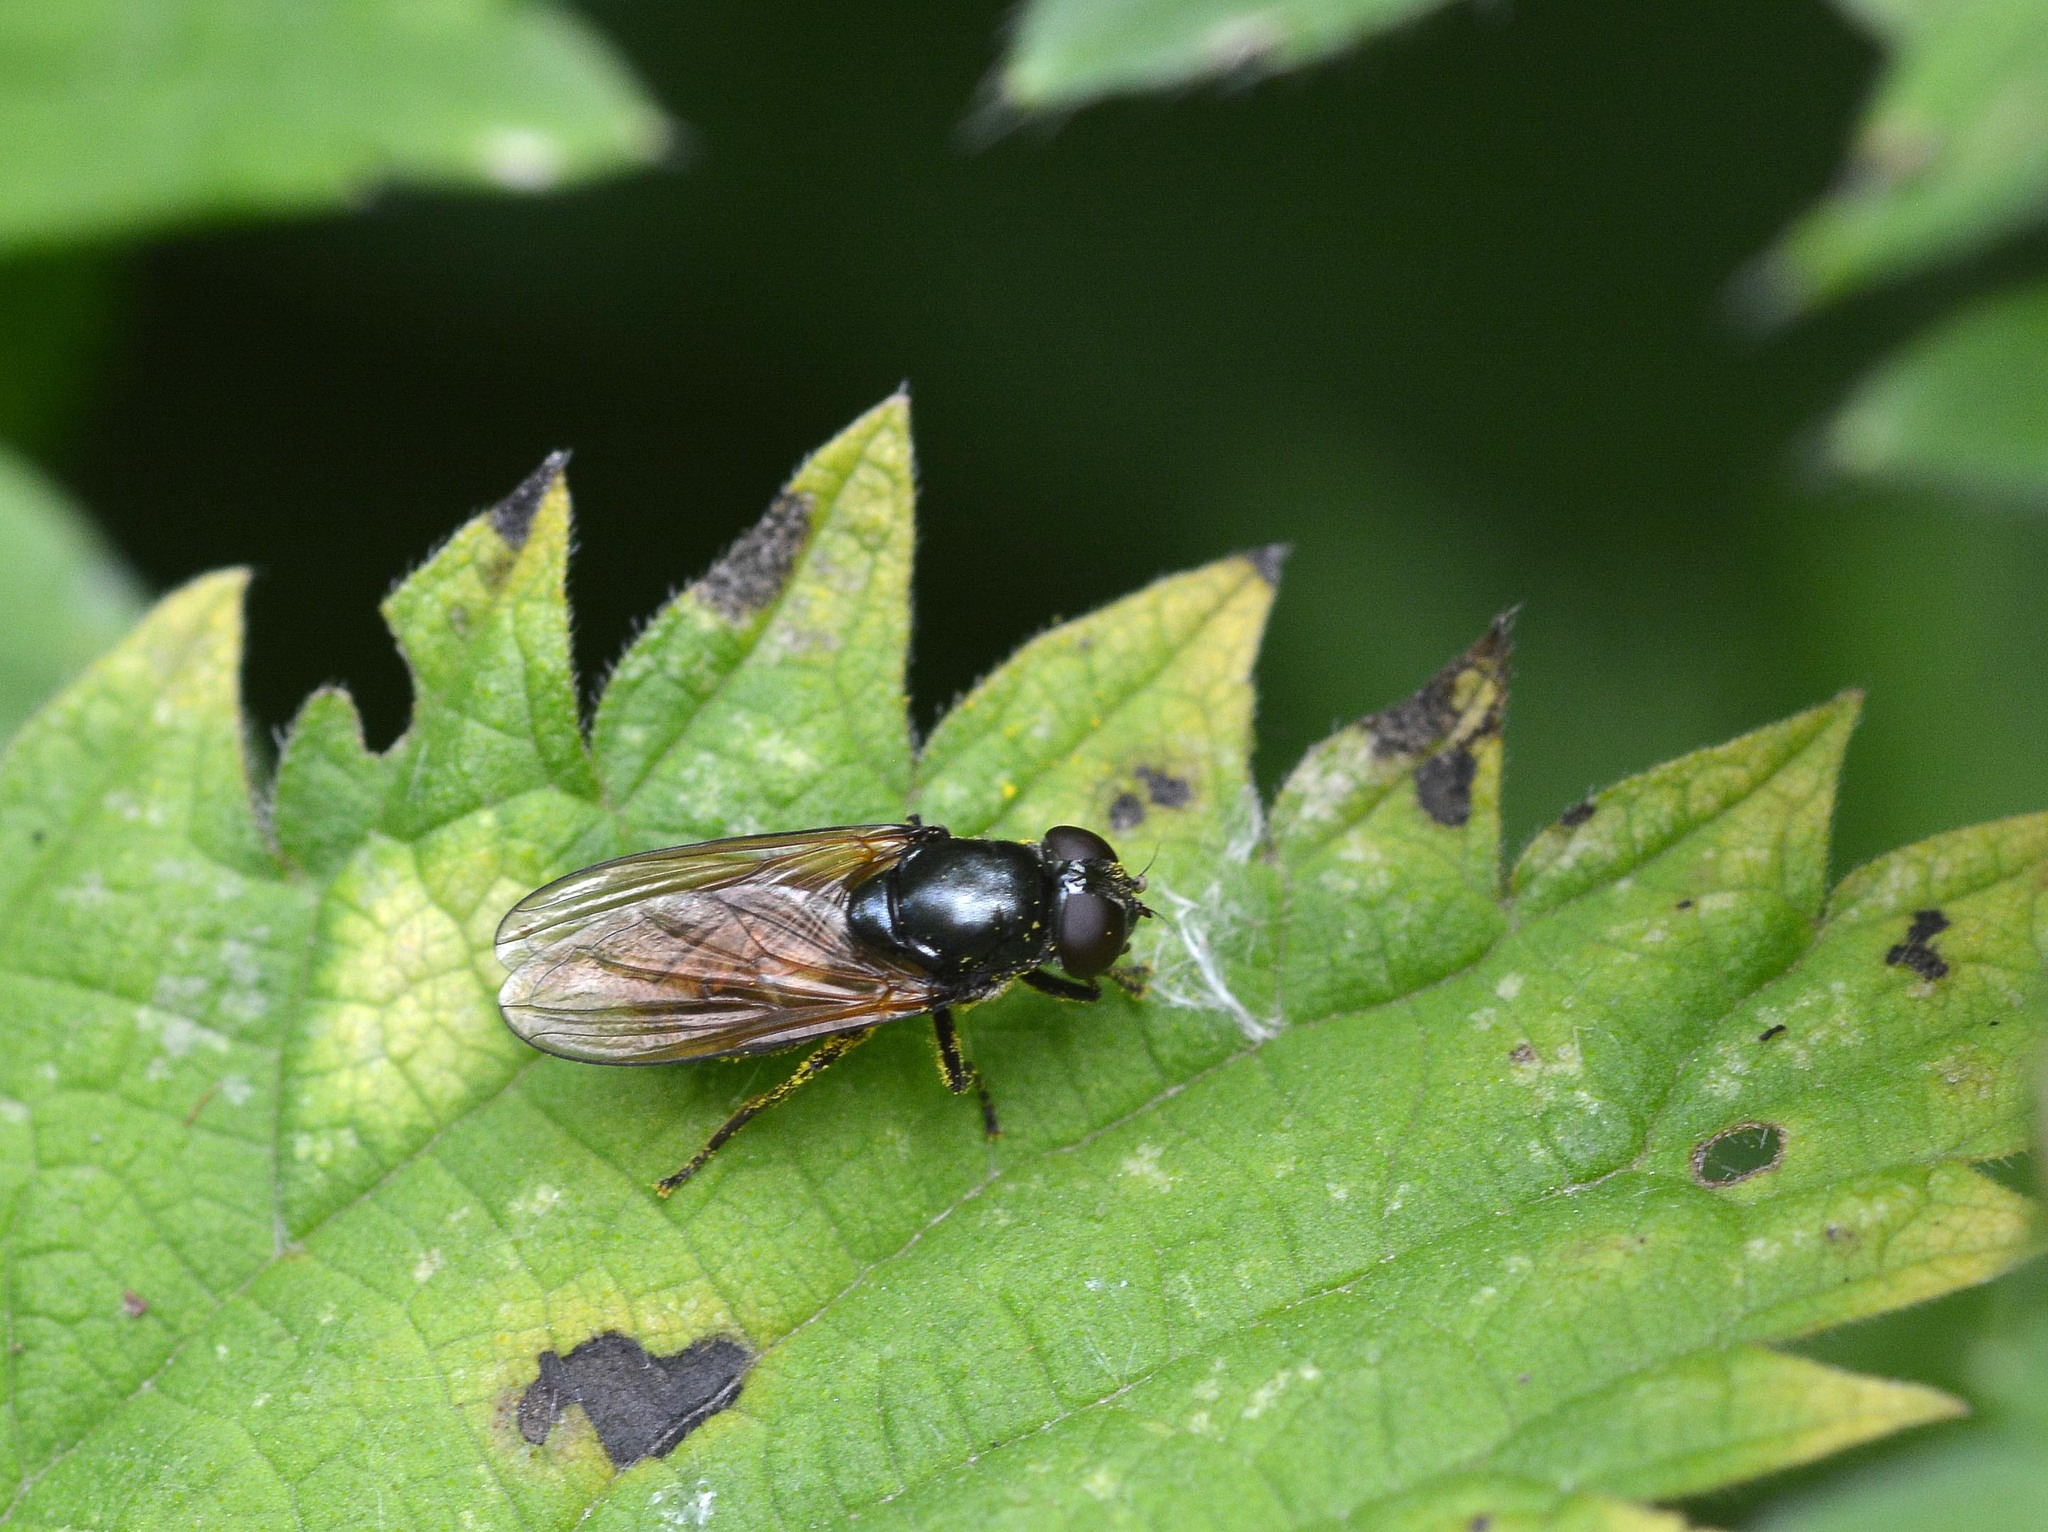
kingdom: Animalia
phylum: Arthropoda
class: Insecta
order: Diptera
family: Syrphidae
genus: Cheilosia
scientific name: Cheilosia
